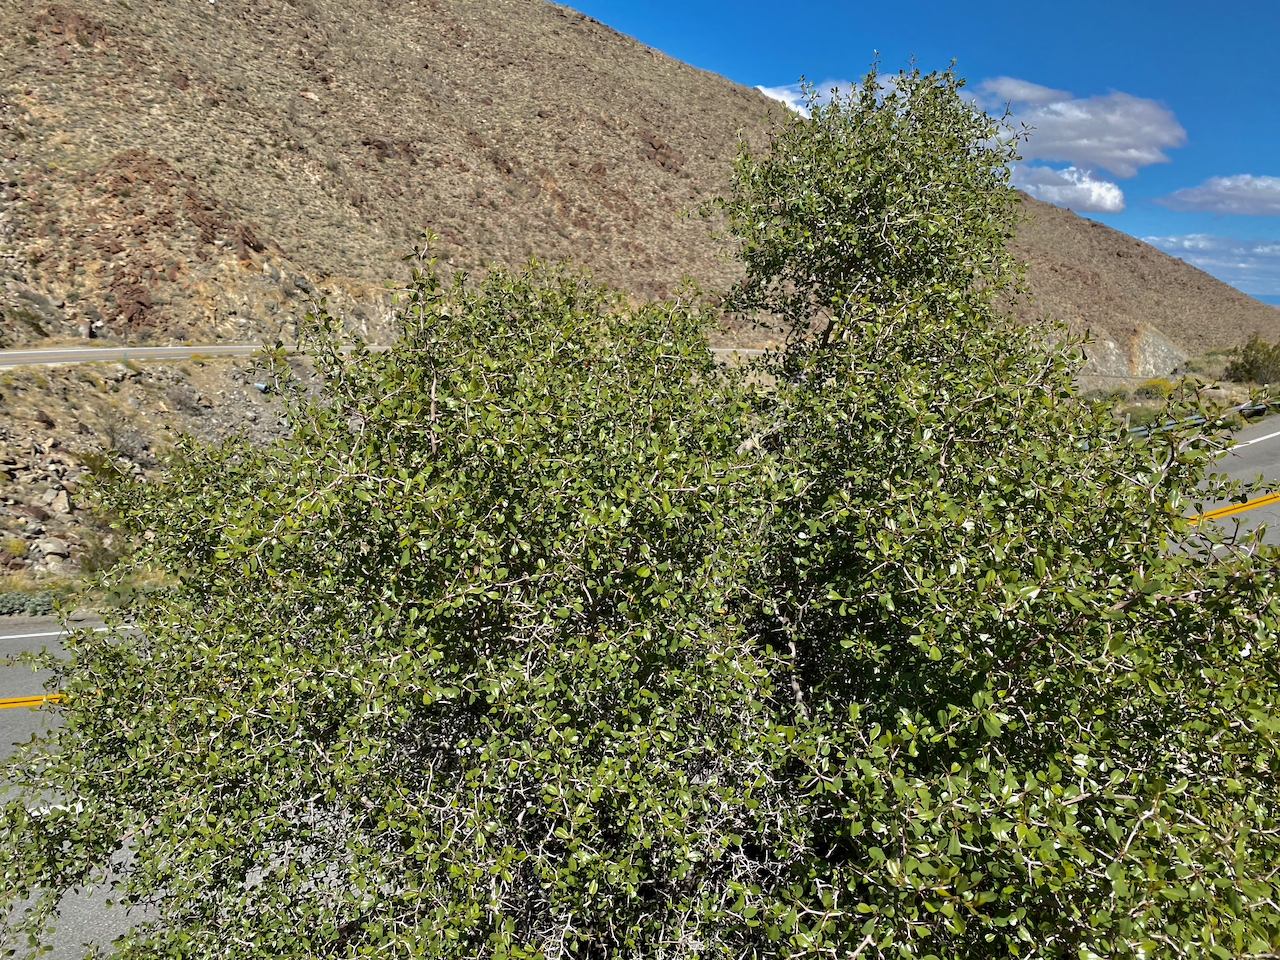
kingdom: Plantae
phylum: Tracheophyta
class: Magnoliopsida
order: Rosales
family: Rhamnaceae
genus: Pseudoziziphus
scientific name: Pseudoziziphus parryi
